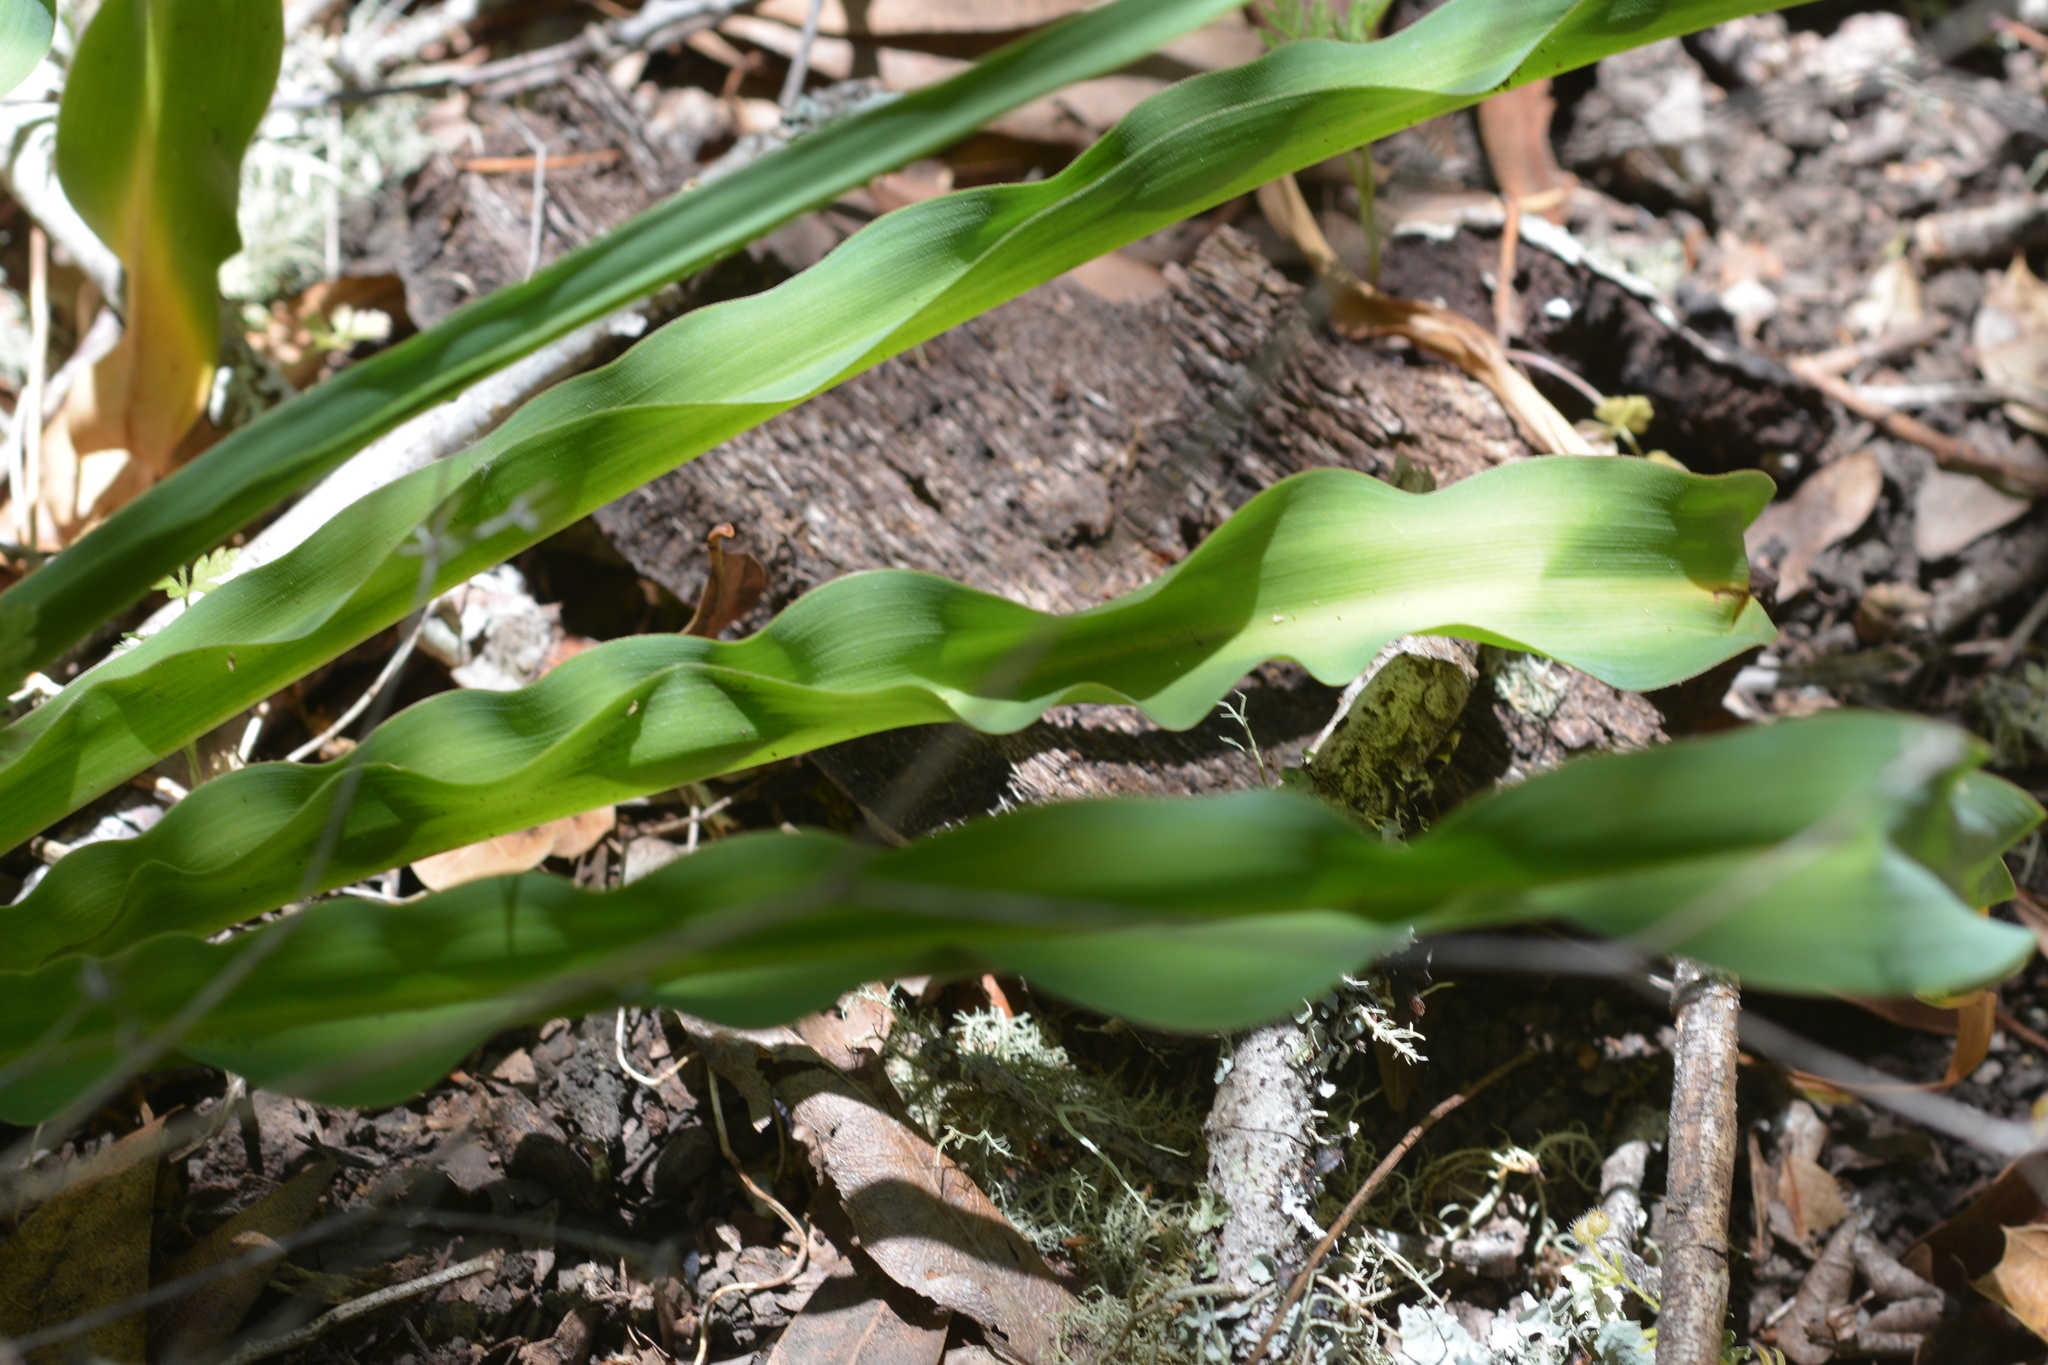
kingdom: Plantae
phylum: Tracheophyta
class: Liliopsida
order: Asparagales
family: Asparagaceae
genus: Chlorogalum
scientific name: Chlorogalum pomeridianum
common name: Amole
